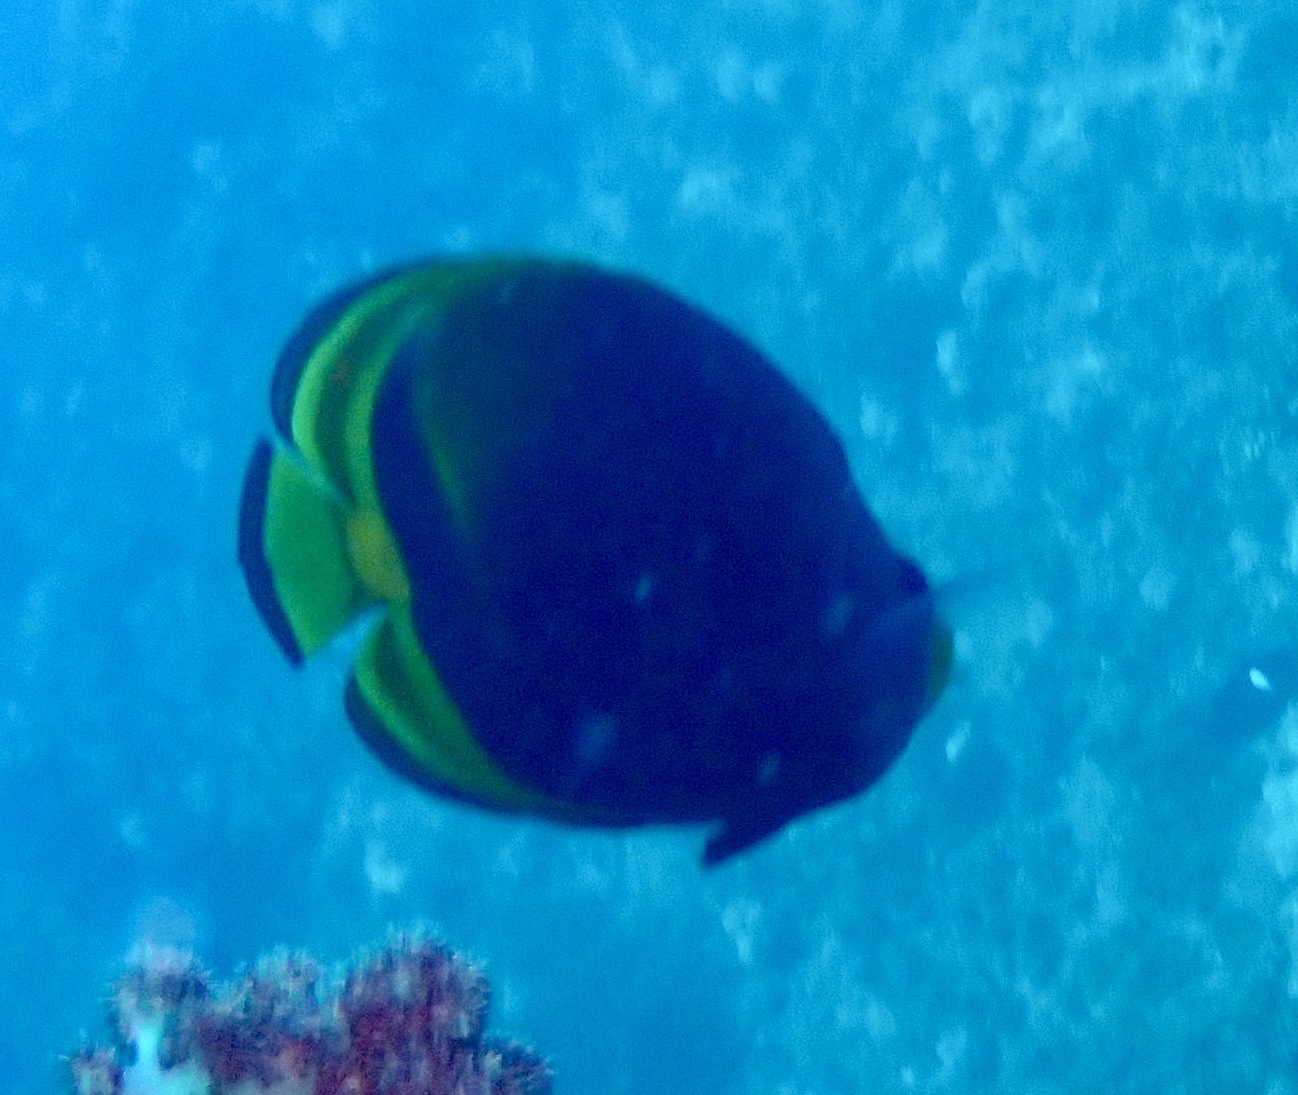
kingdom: Animalia
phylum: Chordata
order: Perciformes
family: Chaetodontidae
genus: Chaetodon
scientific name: Chaetodon flavirostris
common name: Black butterflyfish
